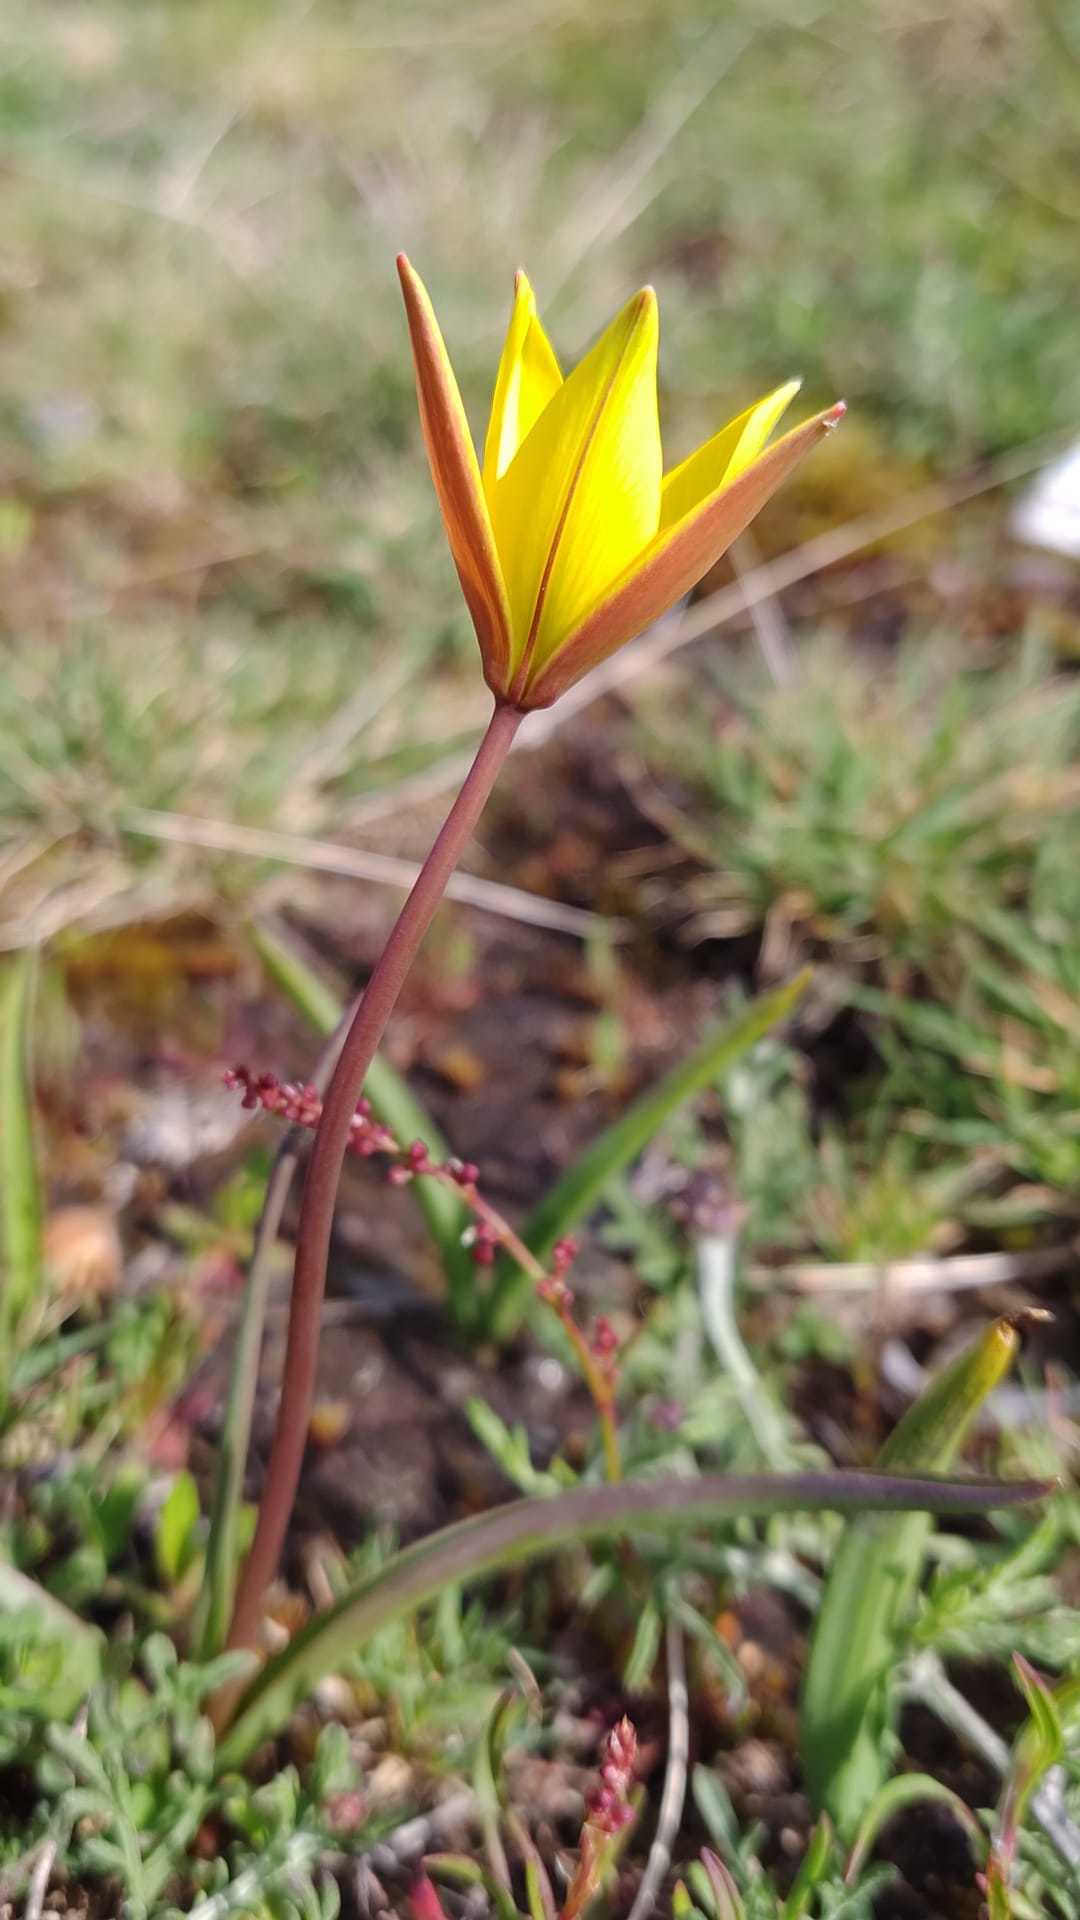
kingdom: Plantae
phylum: Tracheophyta
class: Liliopsida
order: Liliales
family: Liliaceae
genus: Tulipa
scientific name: Tulipa sylvestris
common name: Wild tulip
